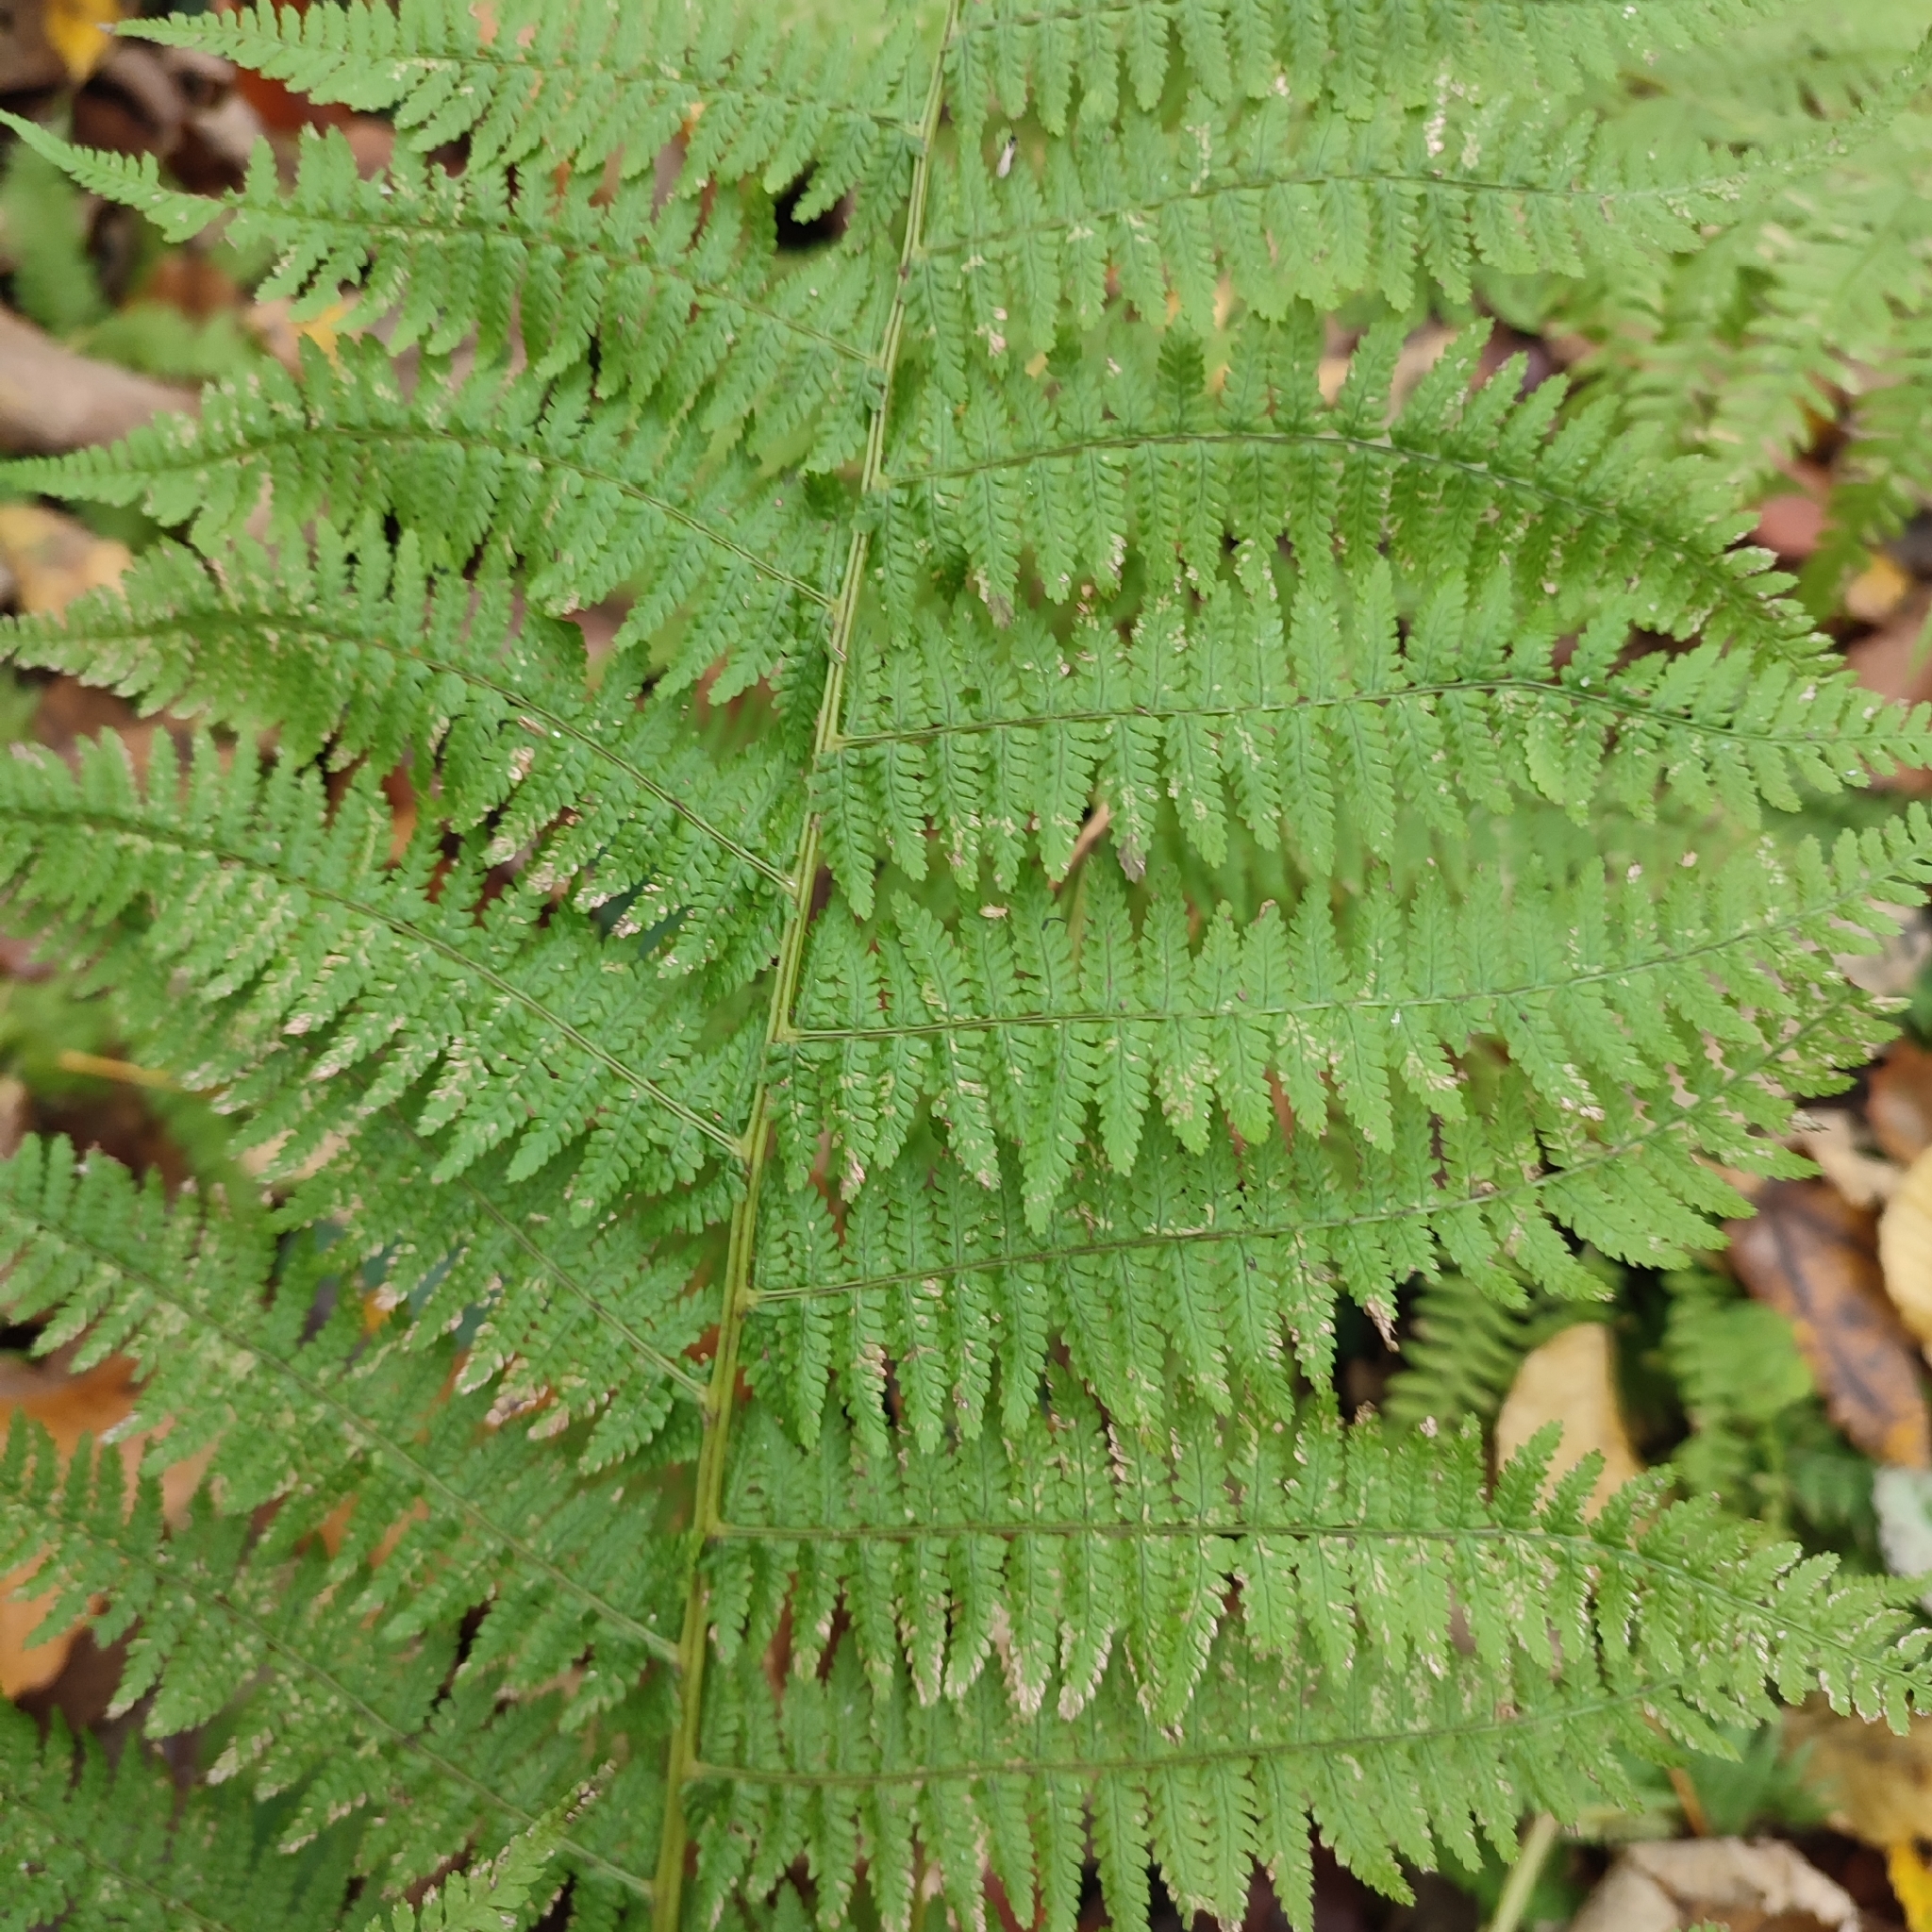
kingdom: Plantae
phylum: Tracheophyta
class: Polypodiopsida
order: Polypodiales
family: Athyriaceae
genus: Athyrium
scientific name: Athyrium filix-femina
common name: Lady fern
